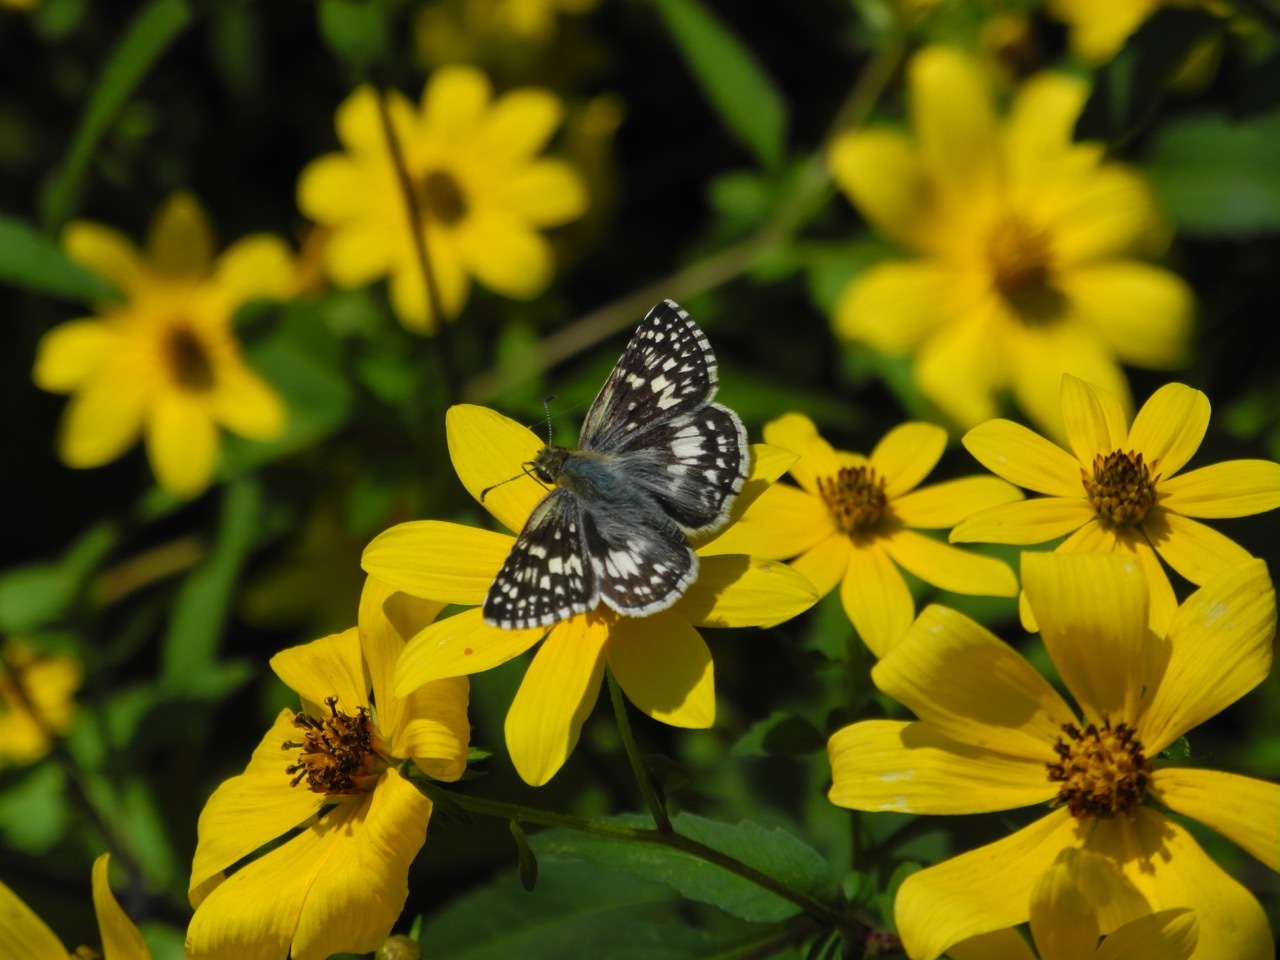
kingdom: Animalia
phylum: Arthropoda
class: Insecta
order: Lepidoptera
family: Hesperiidae
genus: Burnsius
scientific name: Burnsius communis
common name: Common checkered-skipper
